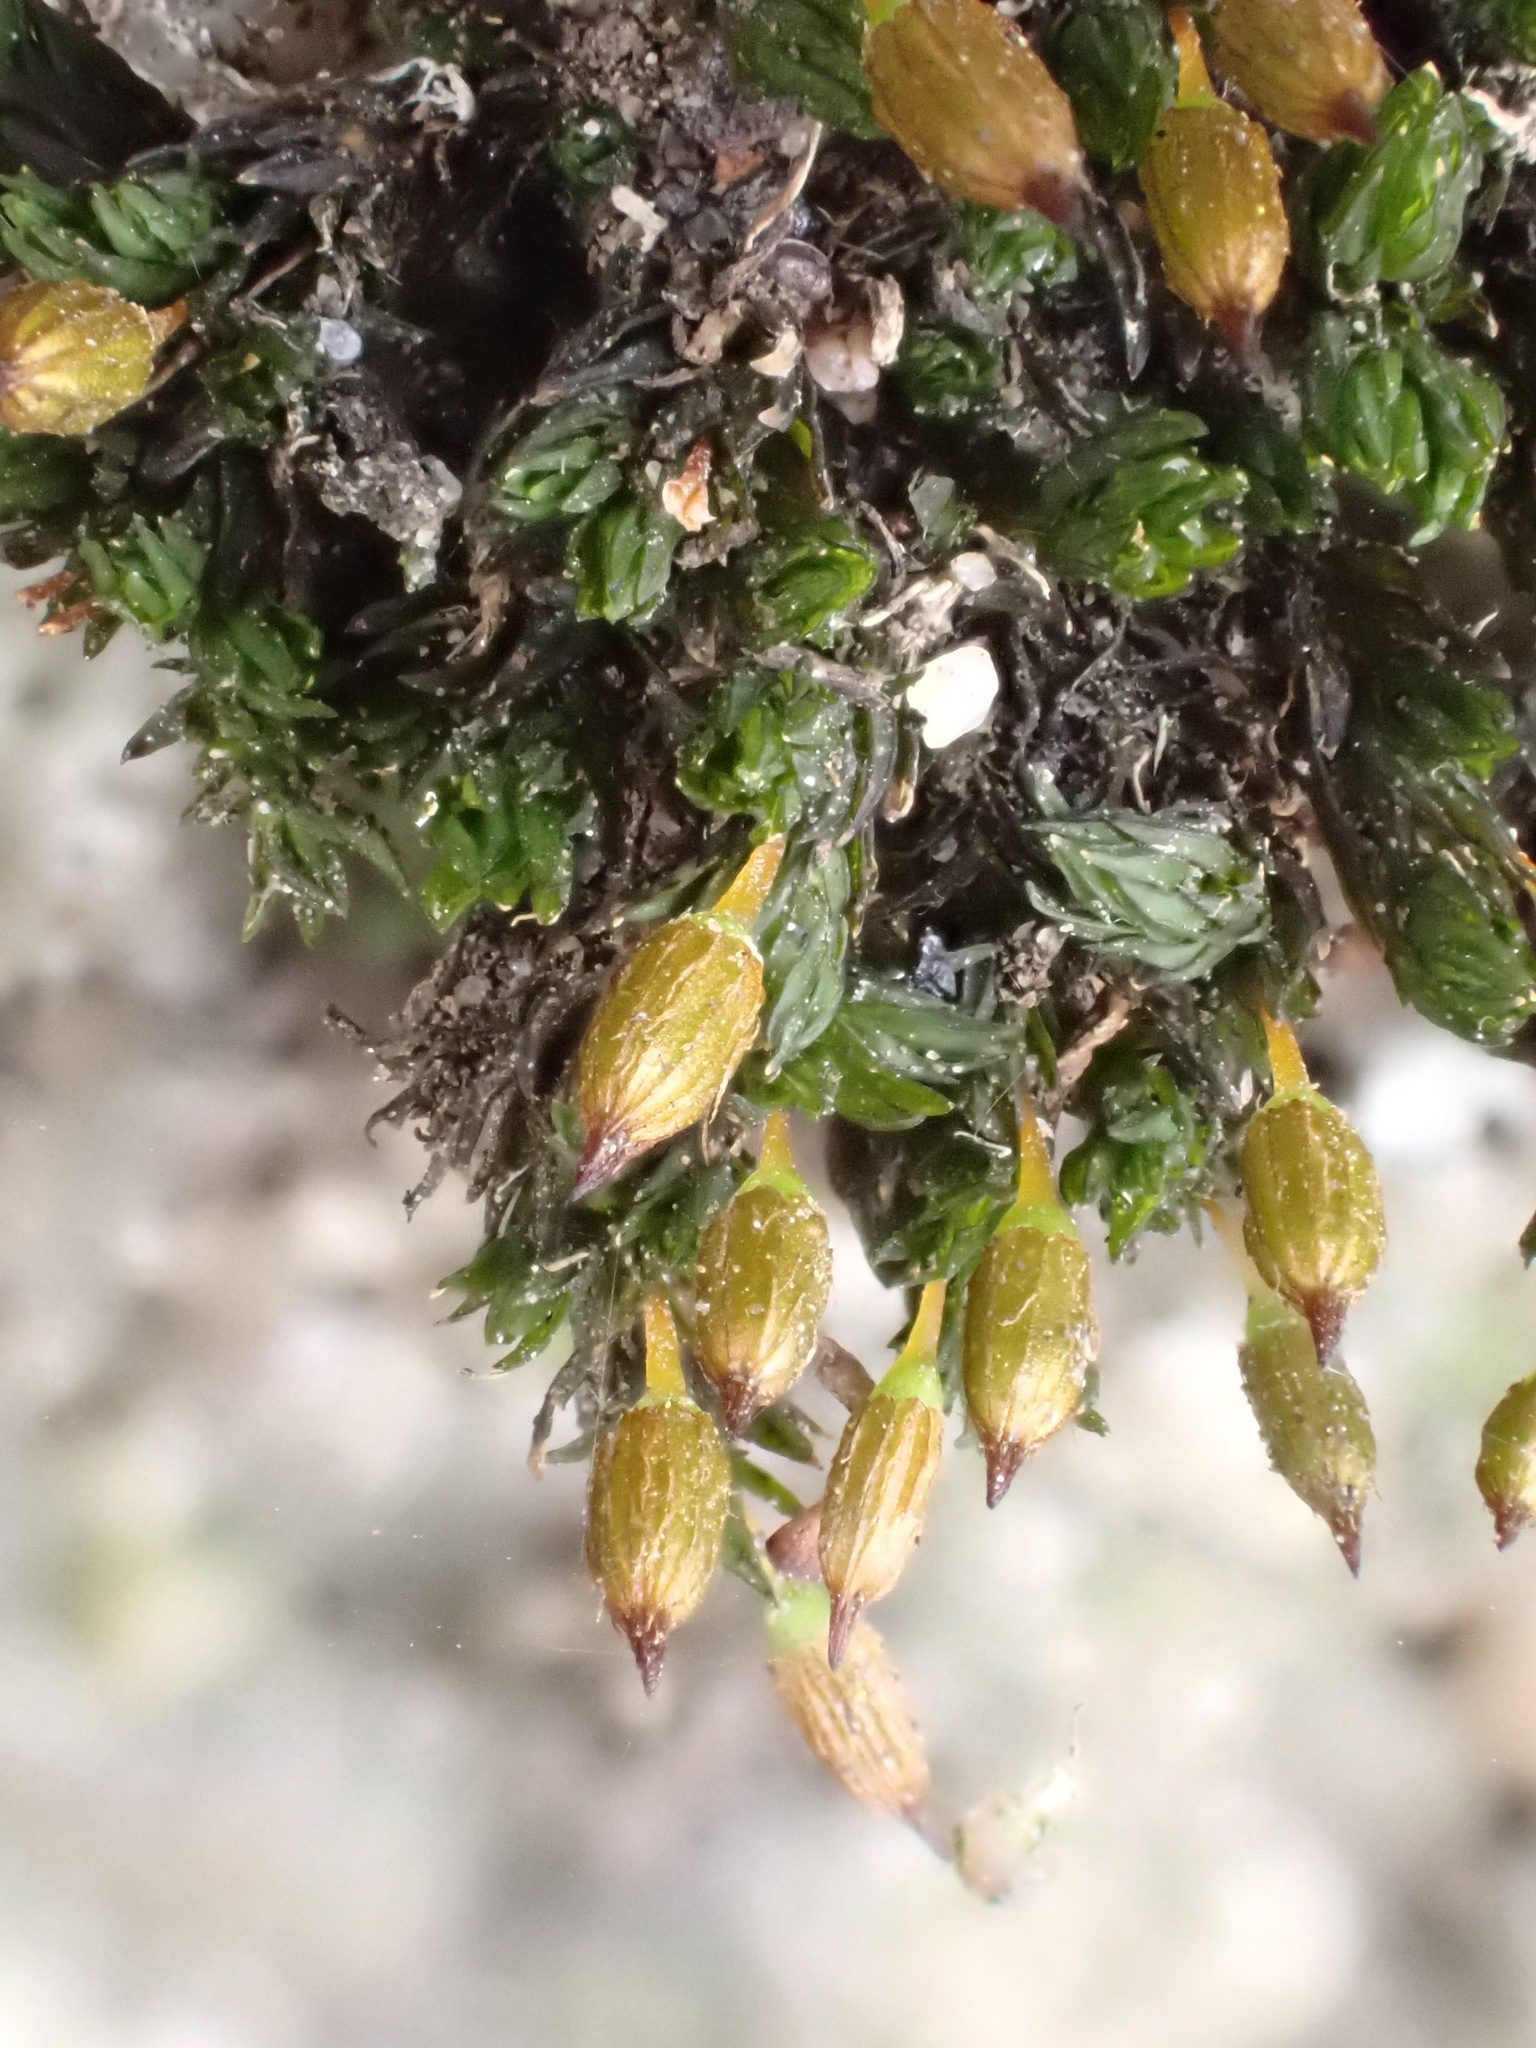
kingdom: Plantae
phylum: Bryophyta
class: Bryopsida
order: Orthotrichales
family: Orthotrichaceae
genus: Orthotrichum
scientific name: Orthotrichum anomalum
